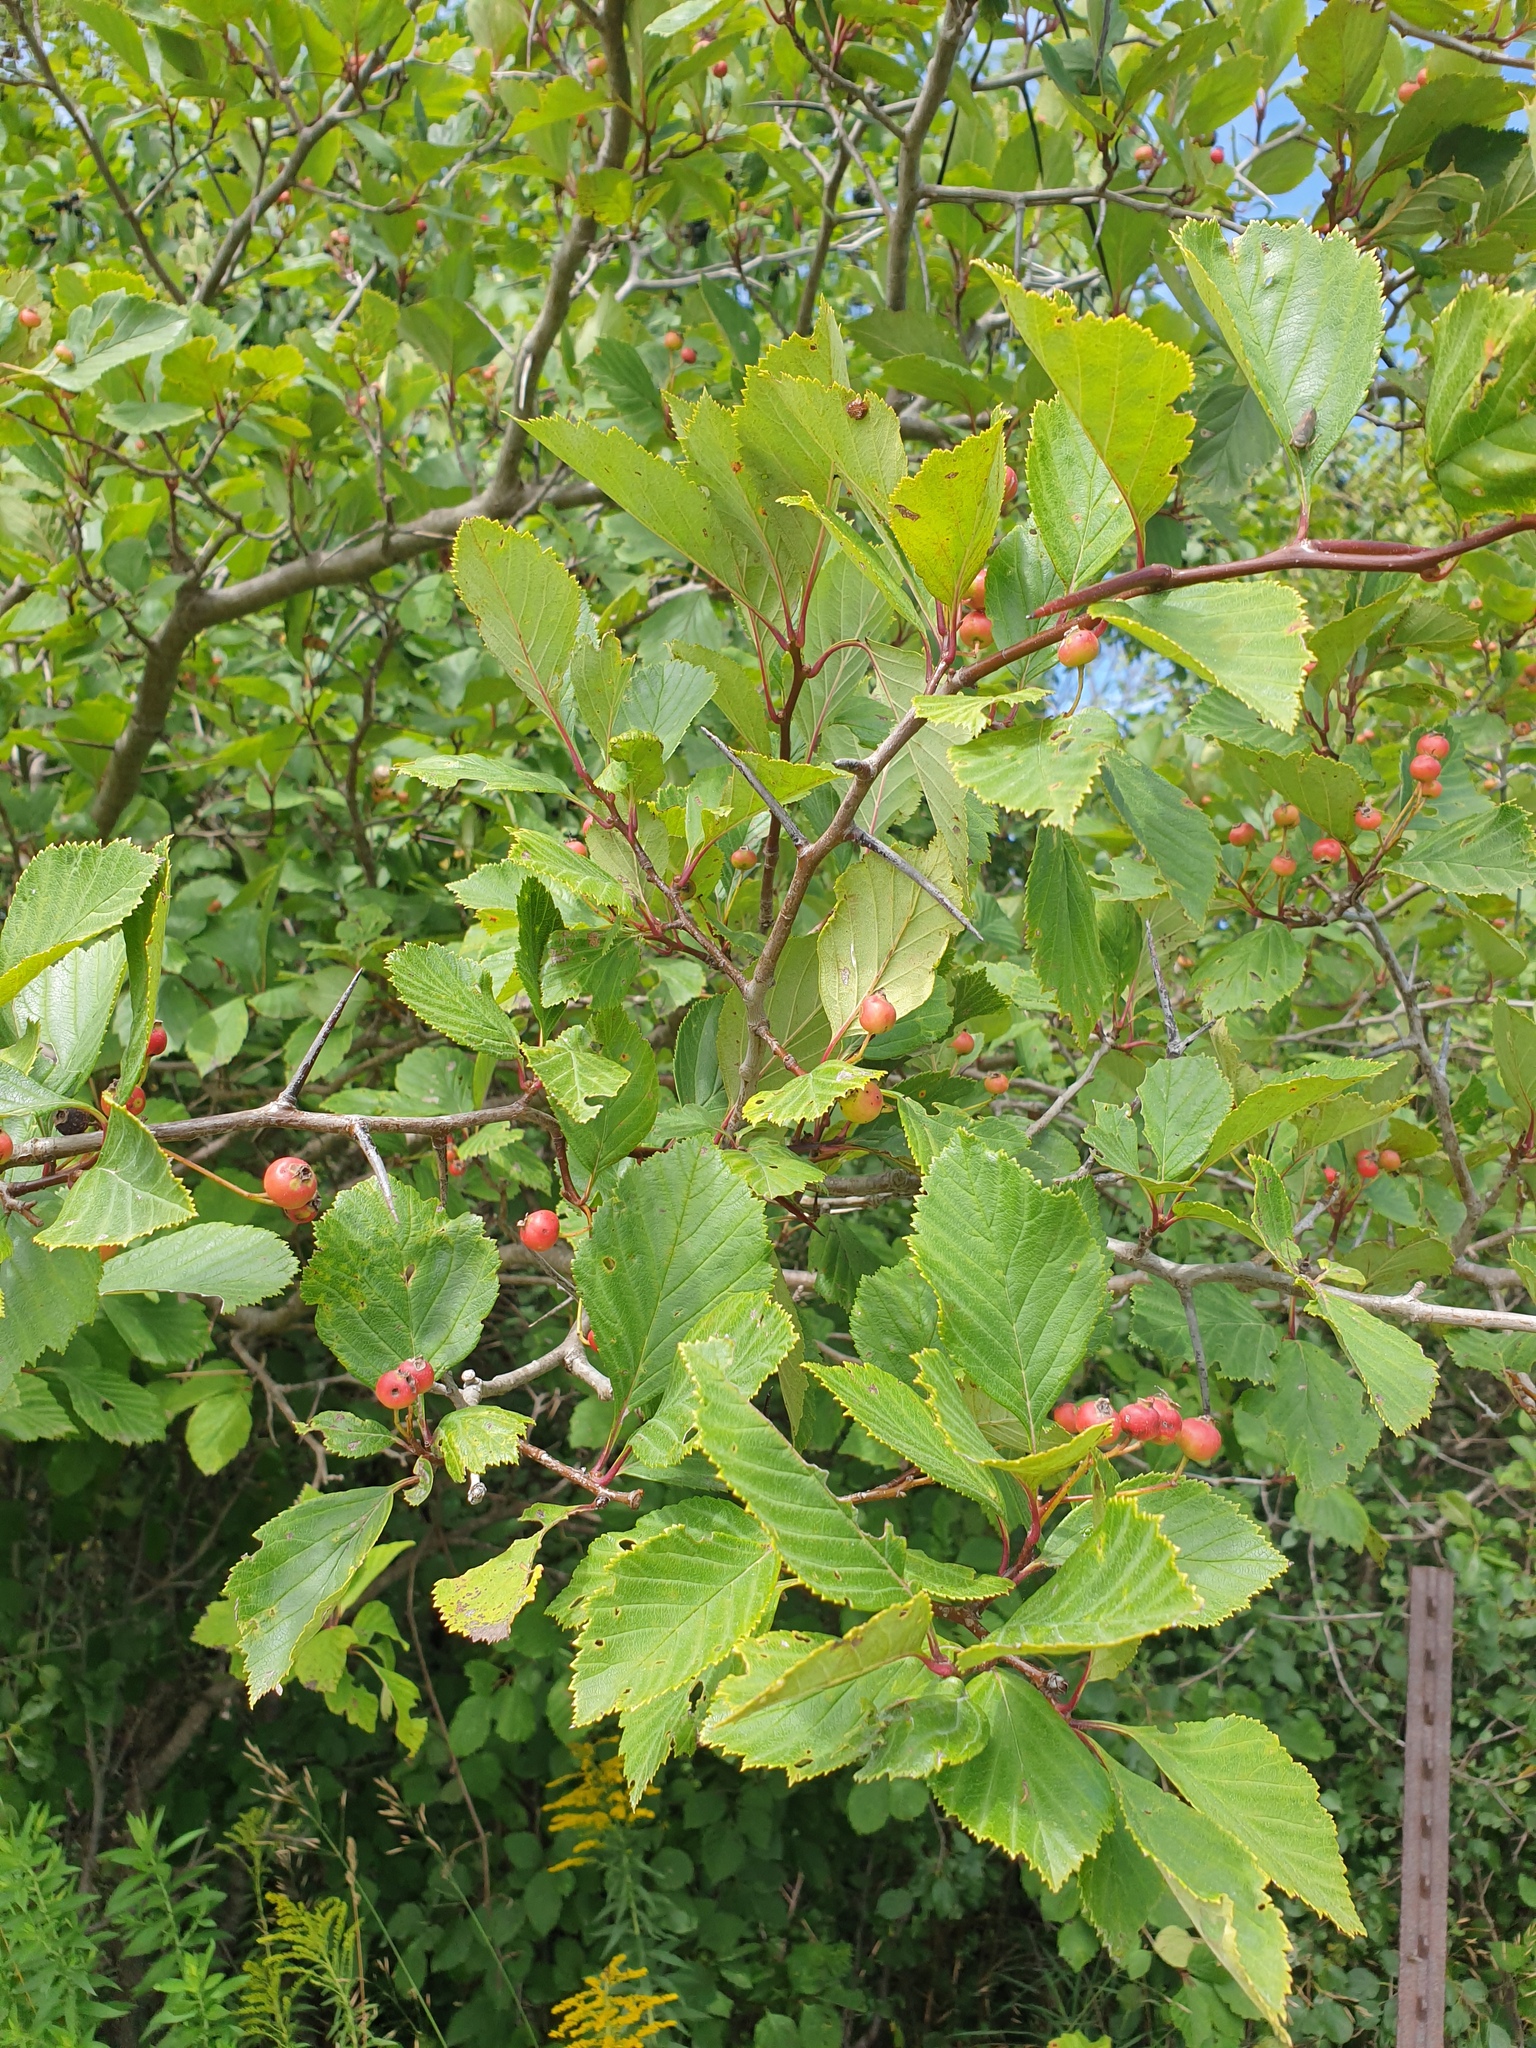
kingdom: Plantae
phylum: Tracheophyta
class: Magnoliopsida
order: Rosales
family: Rosaceae
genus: Crataegus
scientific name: Crataegus macracantha
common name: Large-thorn hawthorn
